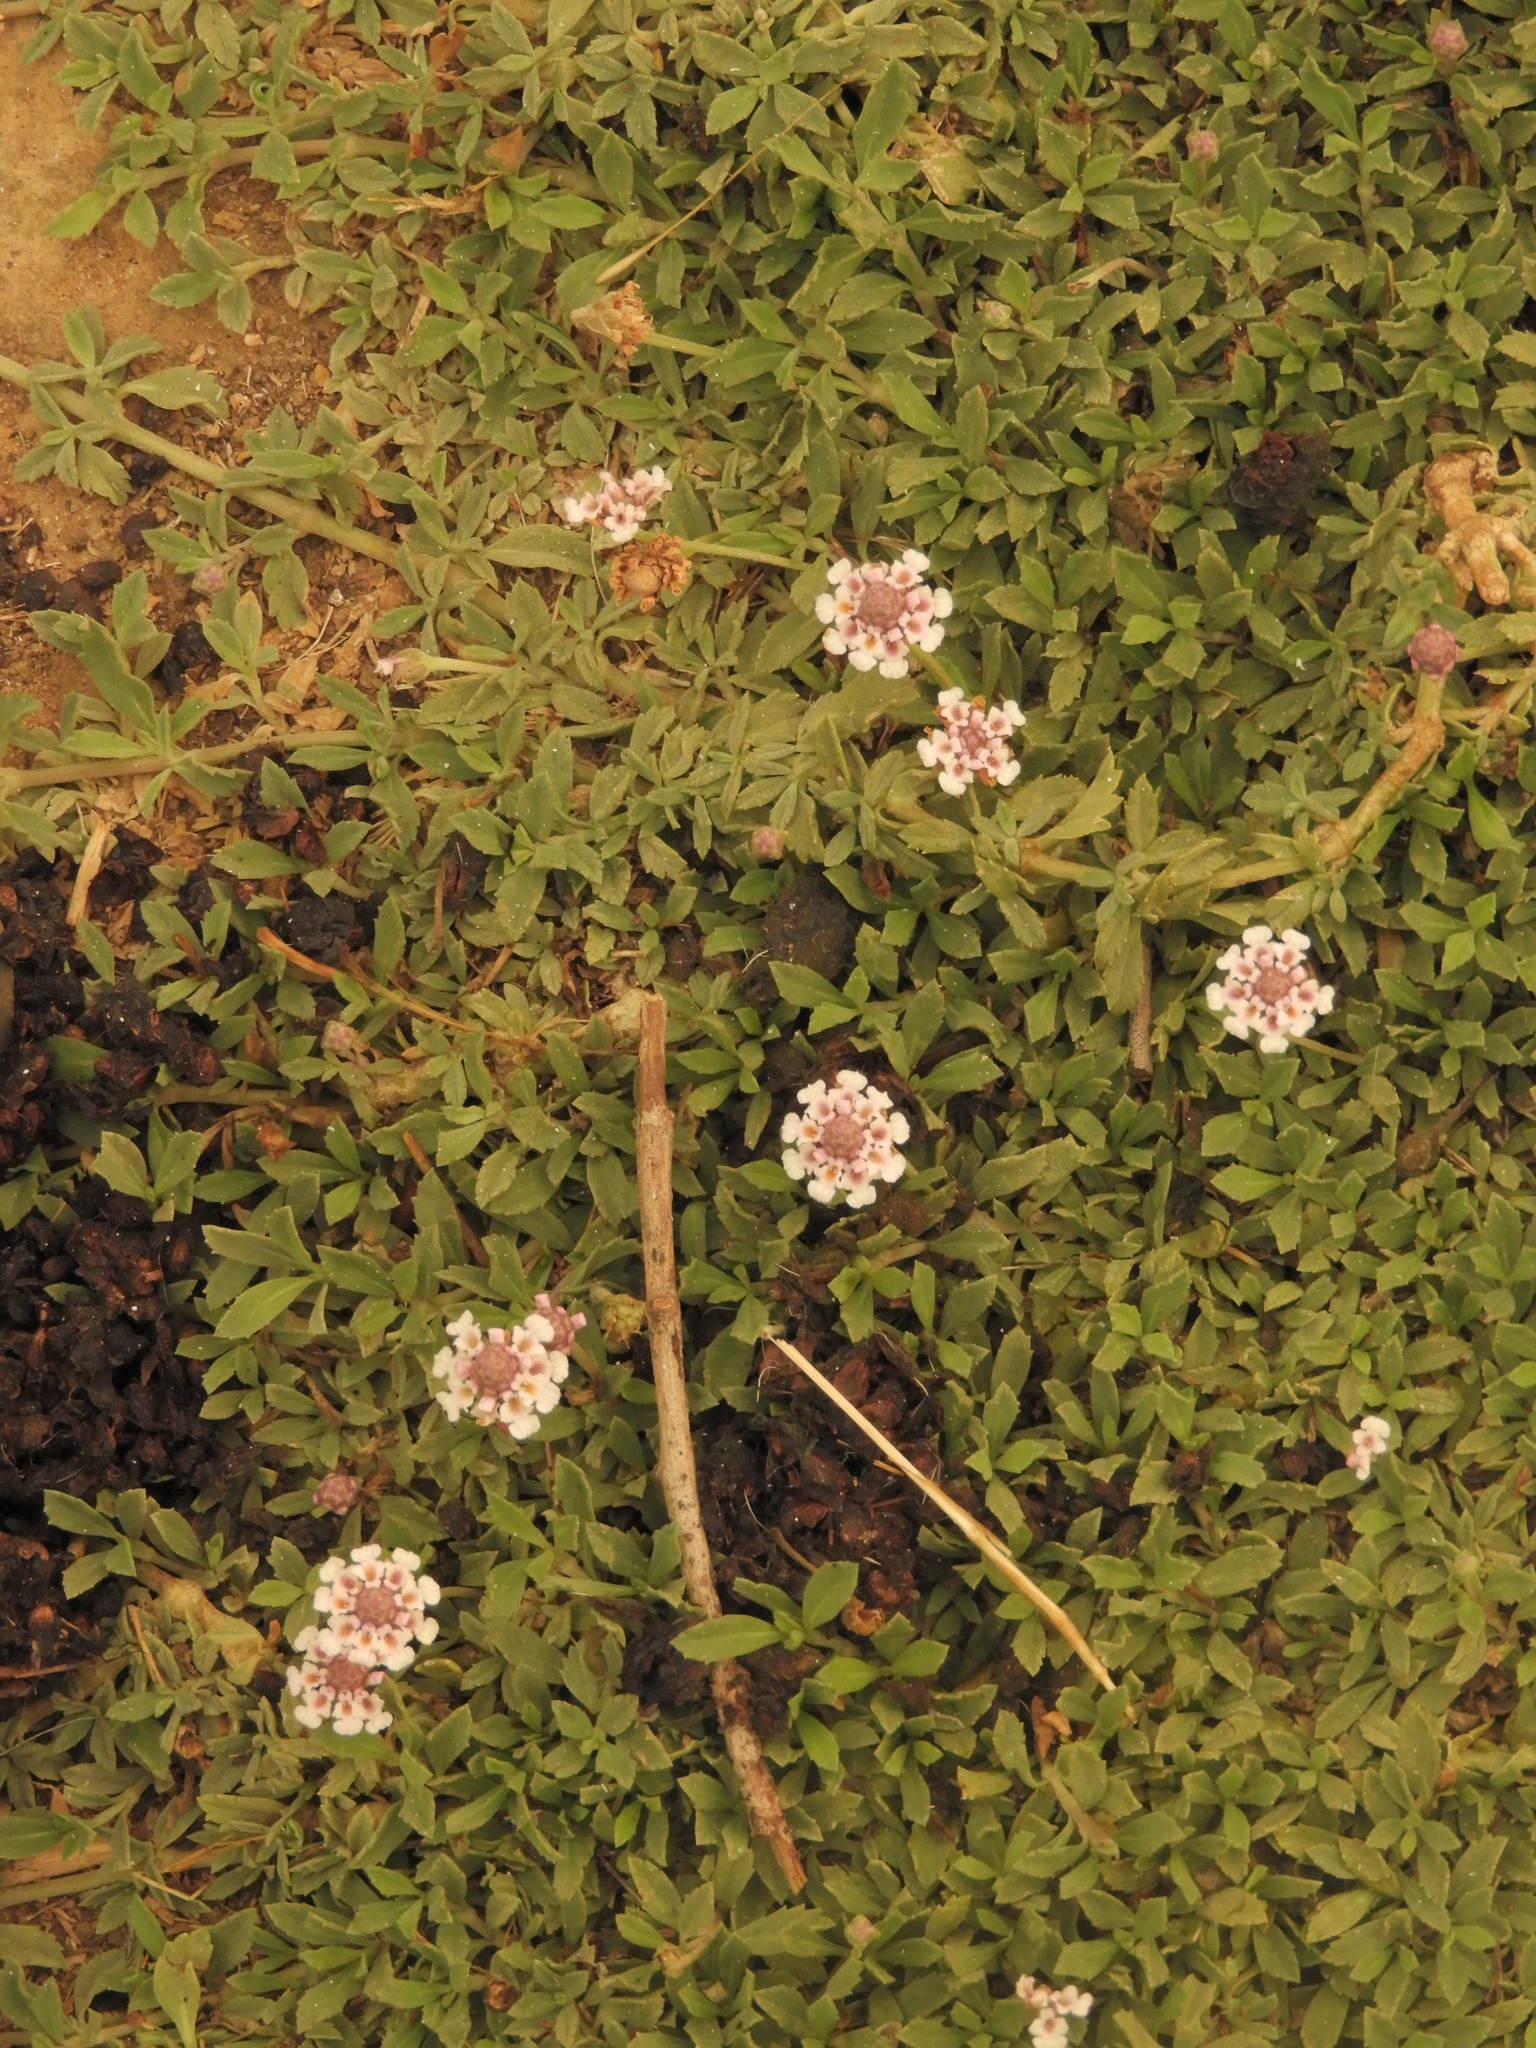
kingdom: Plantae
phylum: Tracheophyta
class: Magnoliopsida
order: Lamiales
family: Verbenaceae
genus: Phyla
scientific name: Phyla nodiflora
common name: Frogfruit
